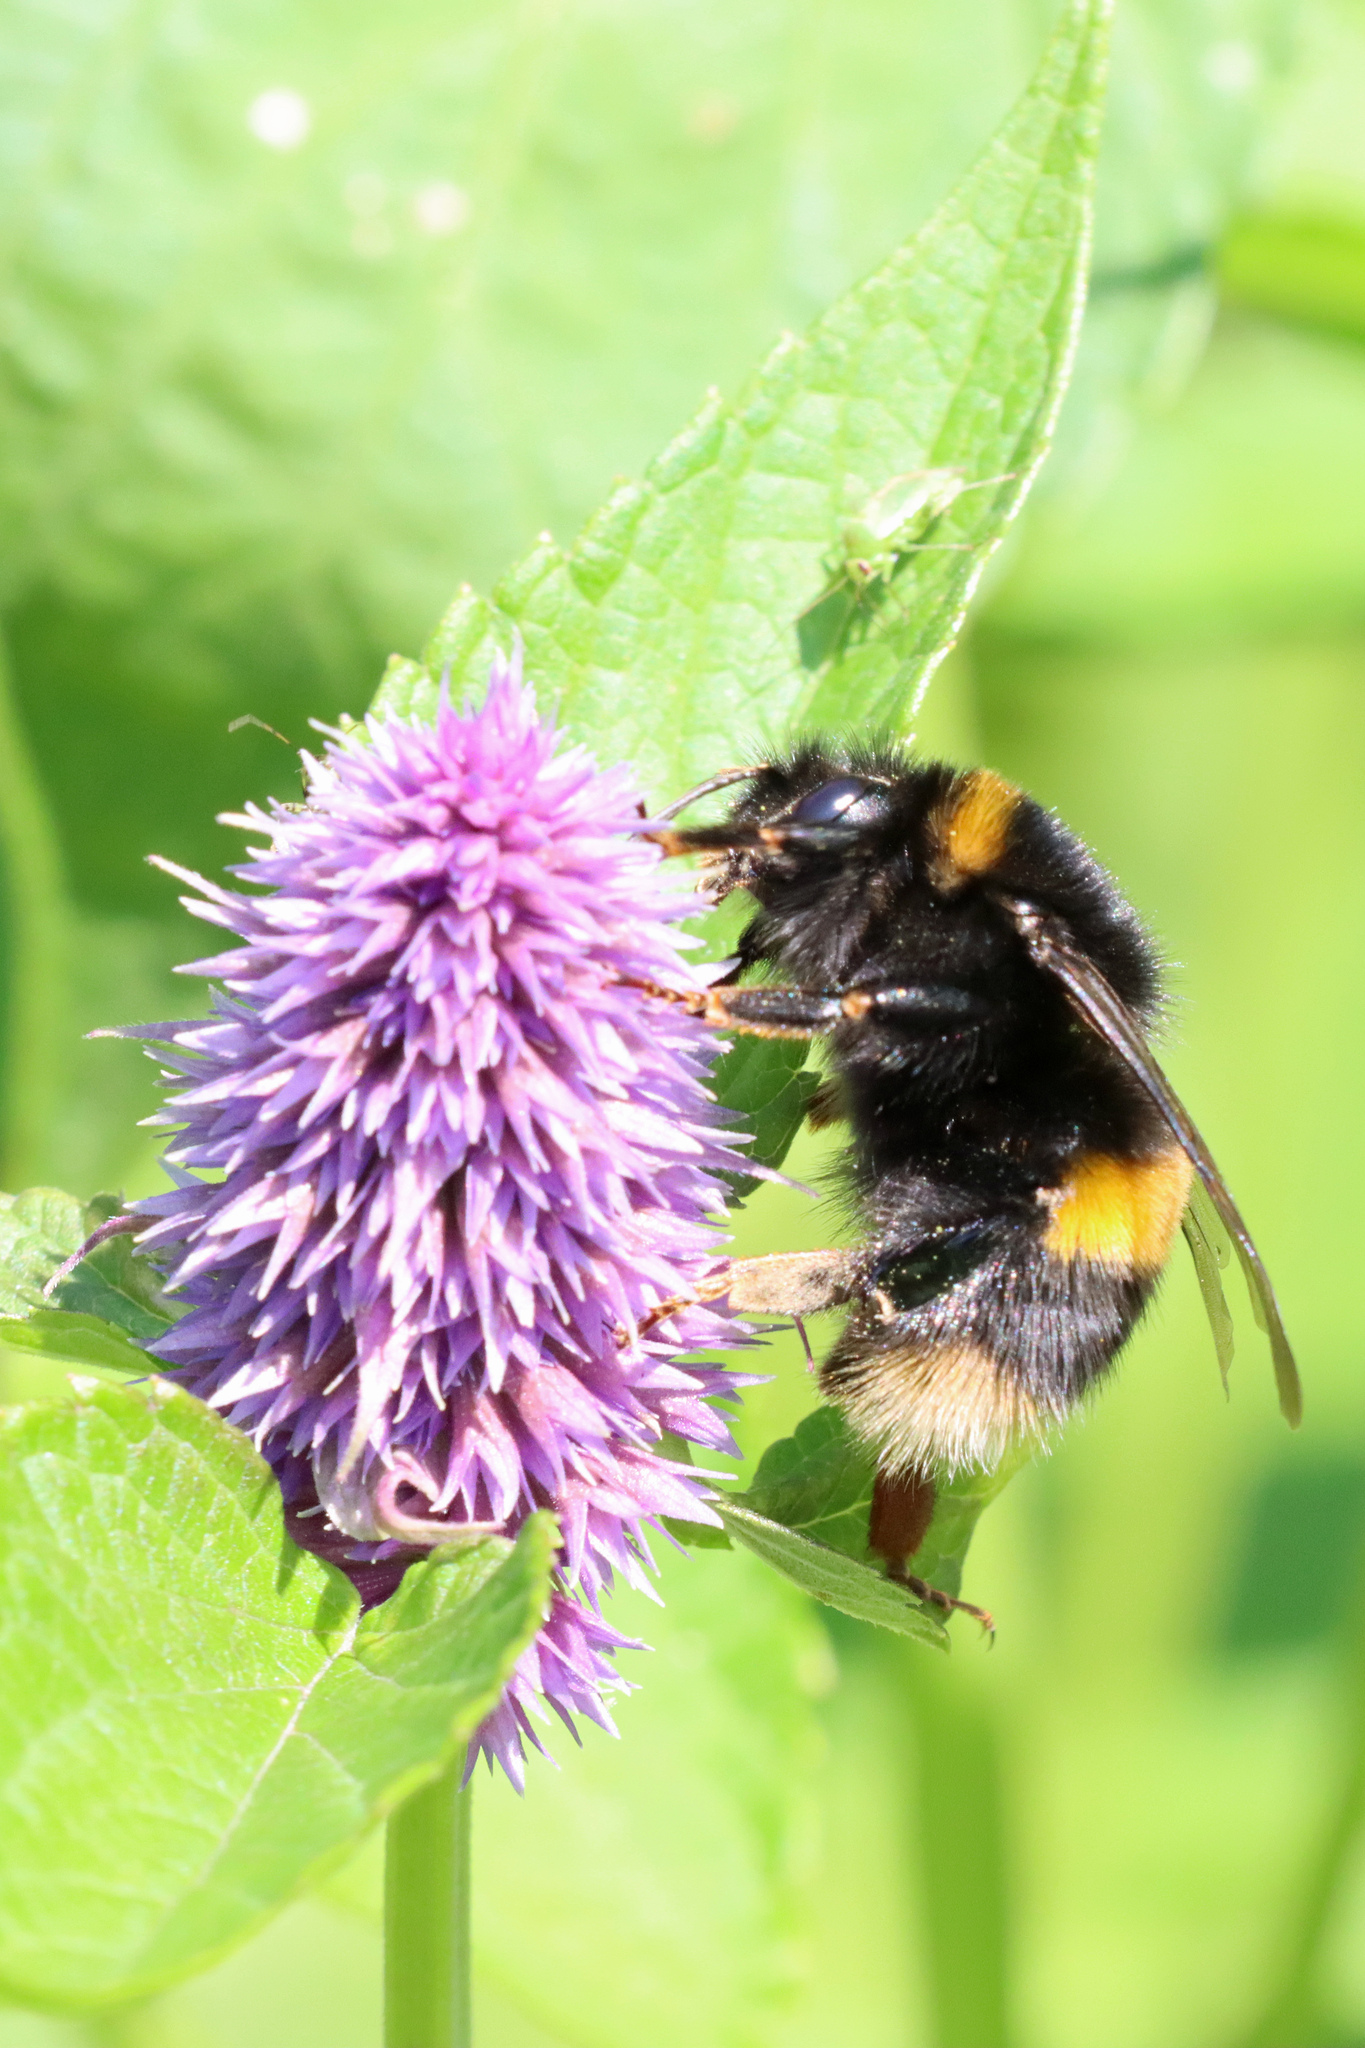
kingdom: Animalia
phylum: Arthropoda
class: Insecta
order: Hymenoptera
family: Apidae
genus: Bombus
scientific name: Bombus terrestris
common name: Buff-tailed bumblebee
